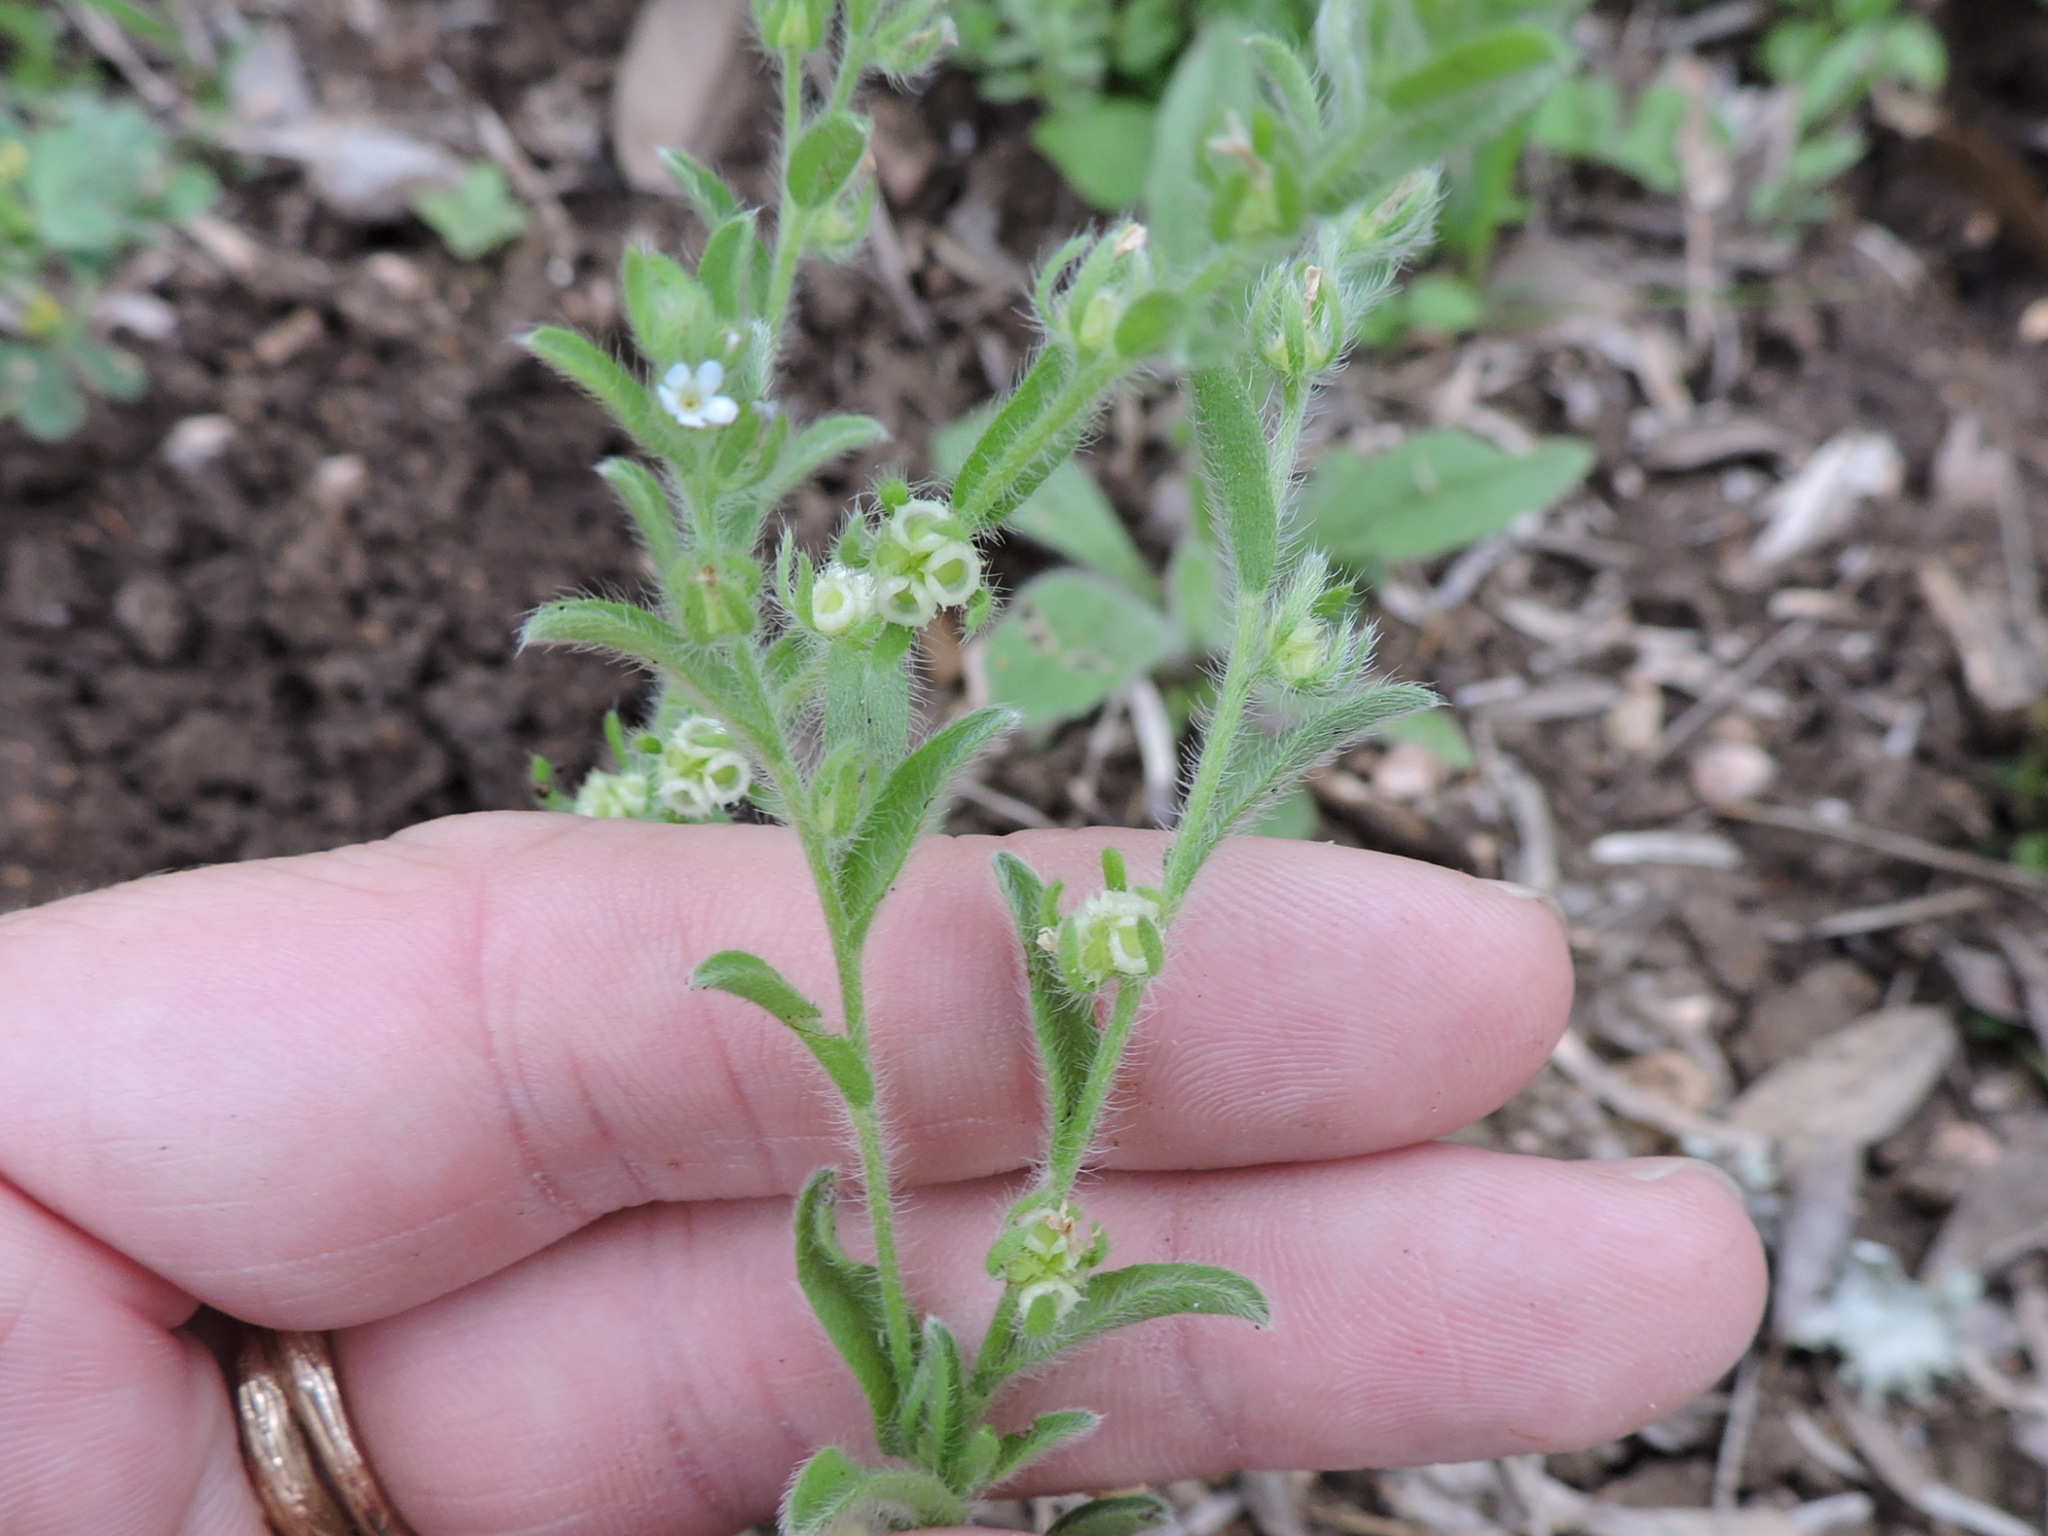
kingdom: Plantae
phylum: Tracheophyta
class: Magnoliopsida
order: Boraginales
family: Boraginaceae
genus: Lappula
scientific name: Lappula occidentalis
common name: Western stickseed
